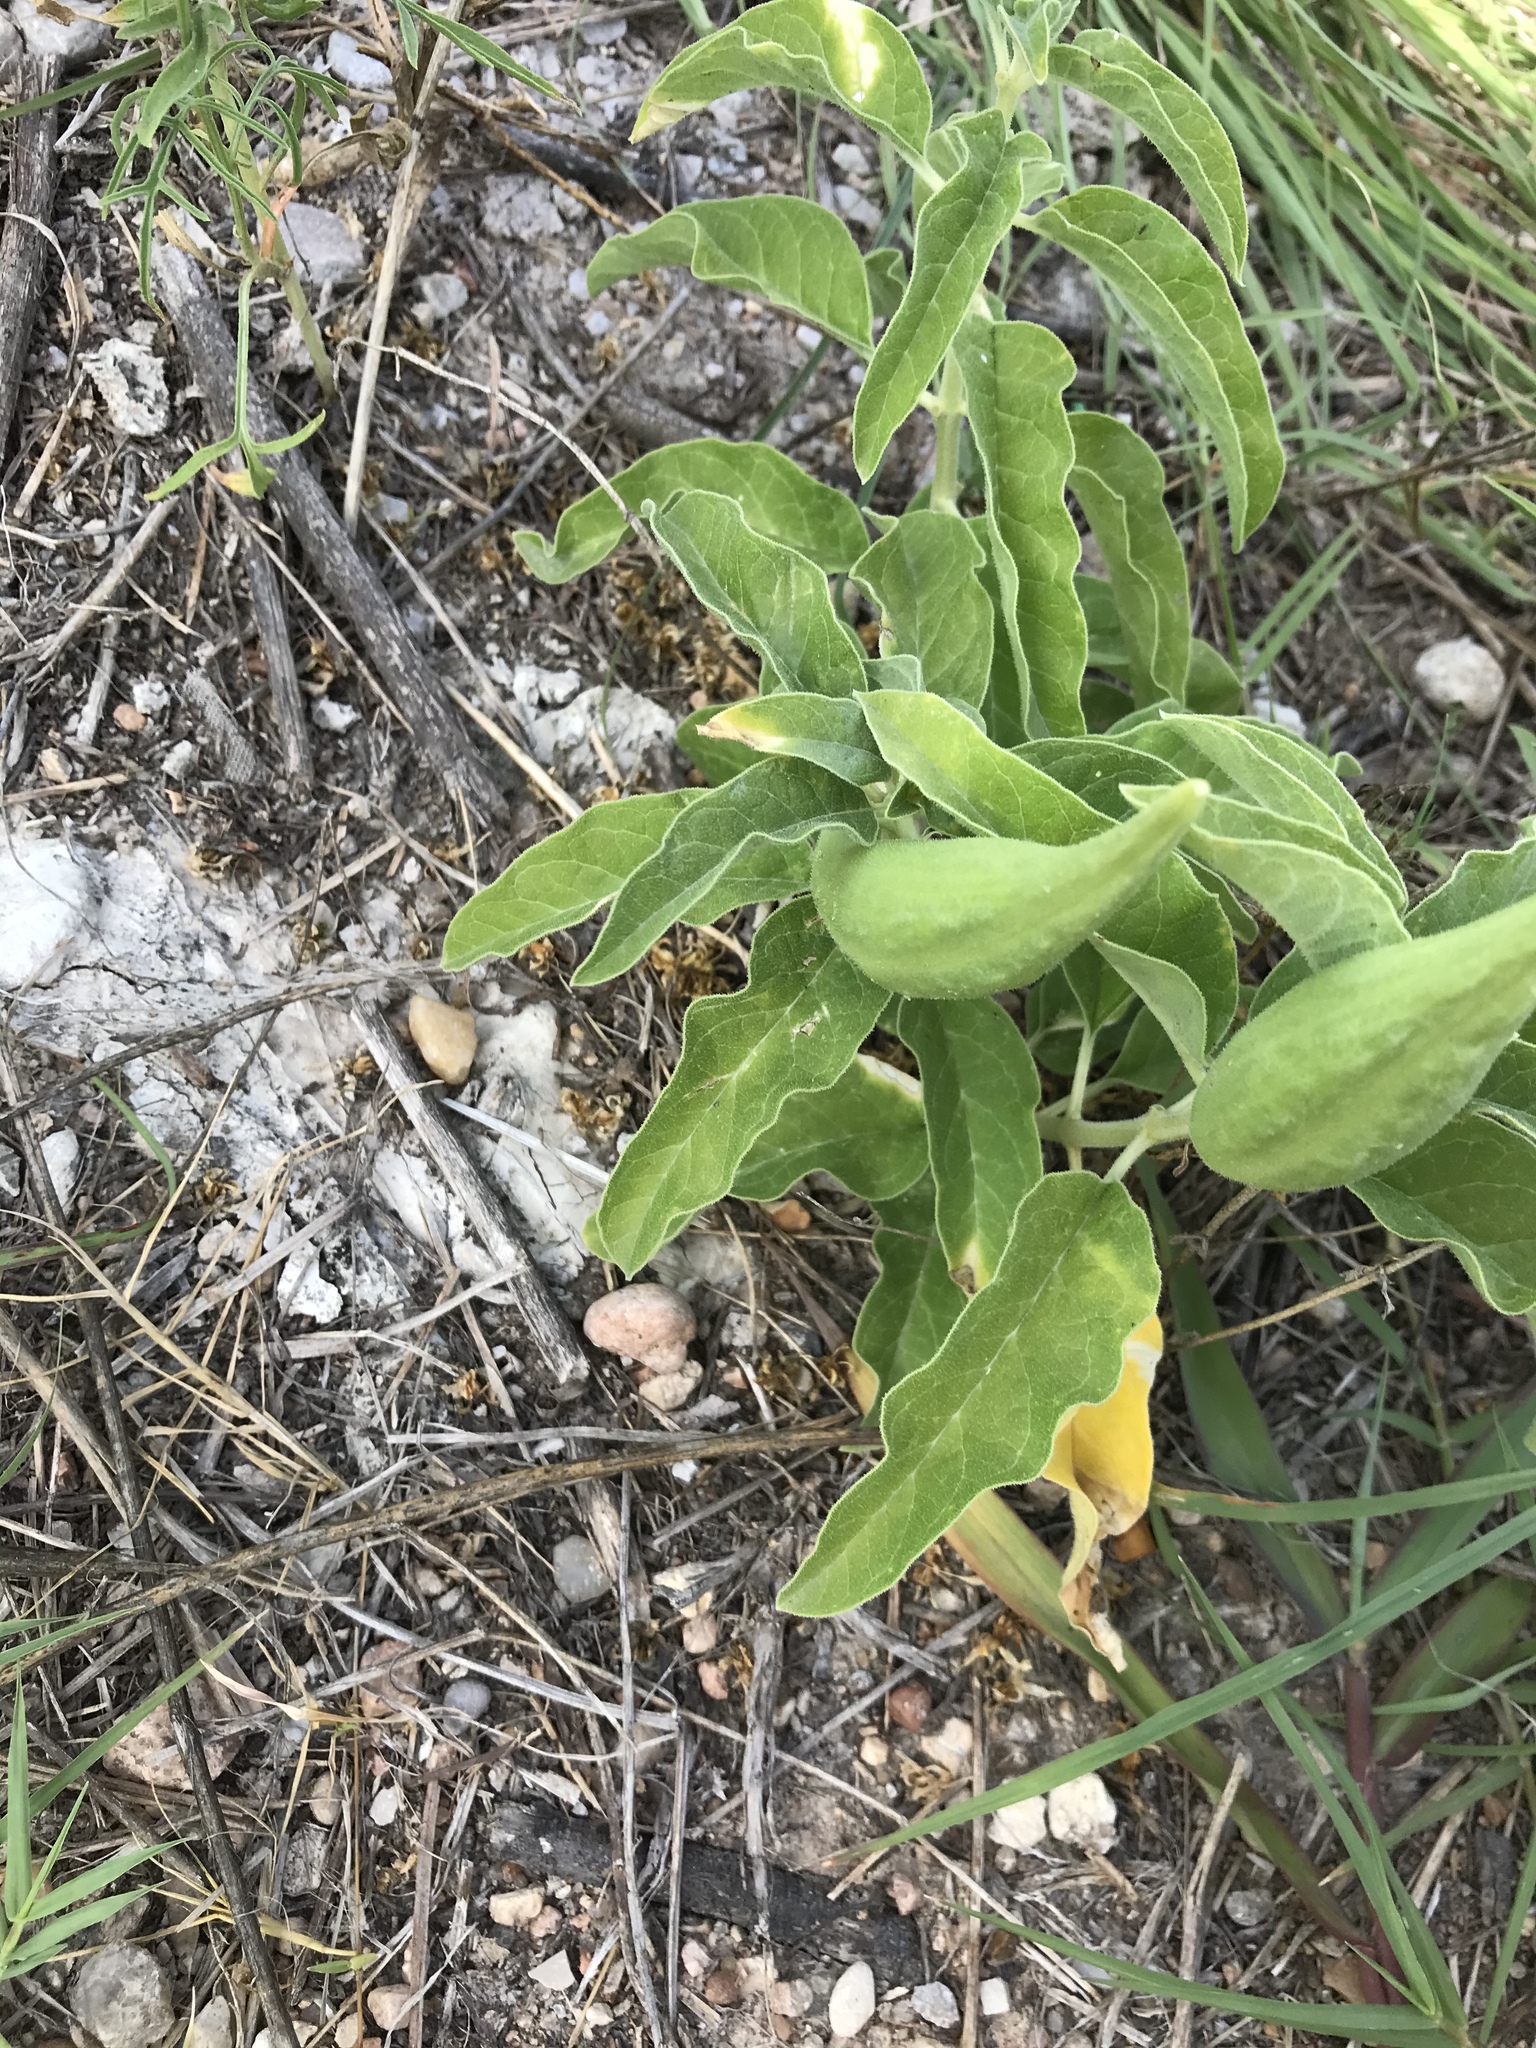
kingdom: Plantae
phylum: Tracheophyta
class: Magnoliopsida
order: Gentianales
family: Apocynaceae
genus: Asclepias
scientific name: Asclepias oenotheroides
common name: Zizotes milkweed
